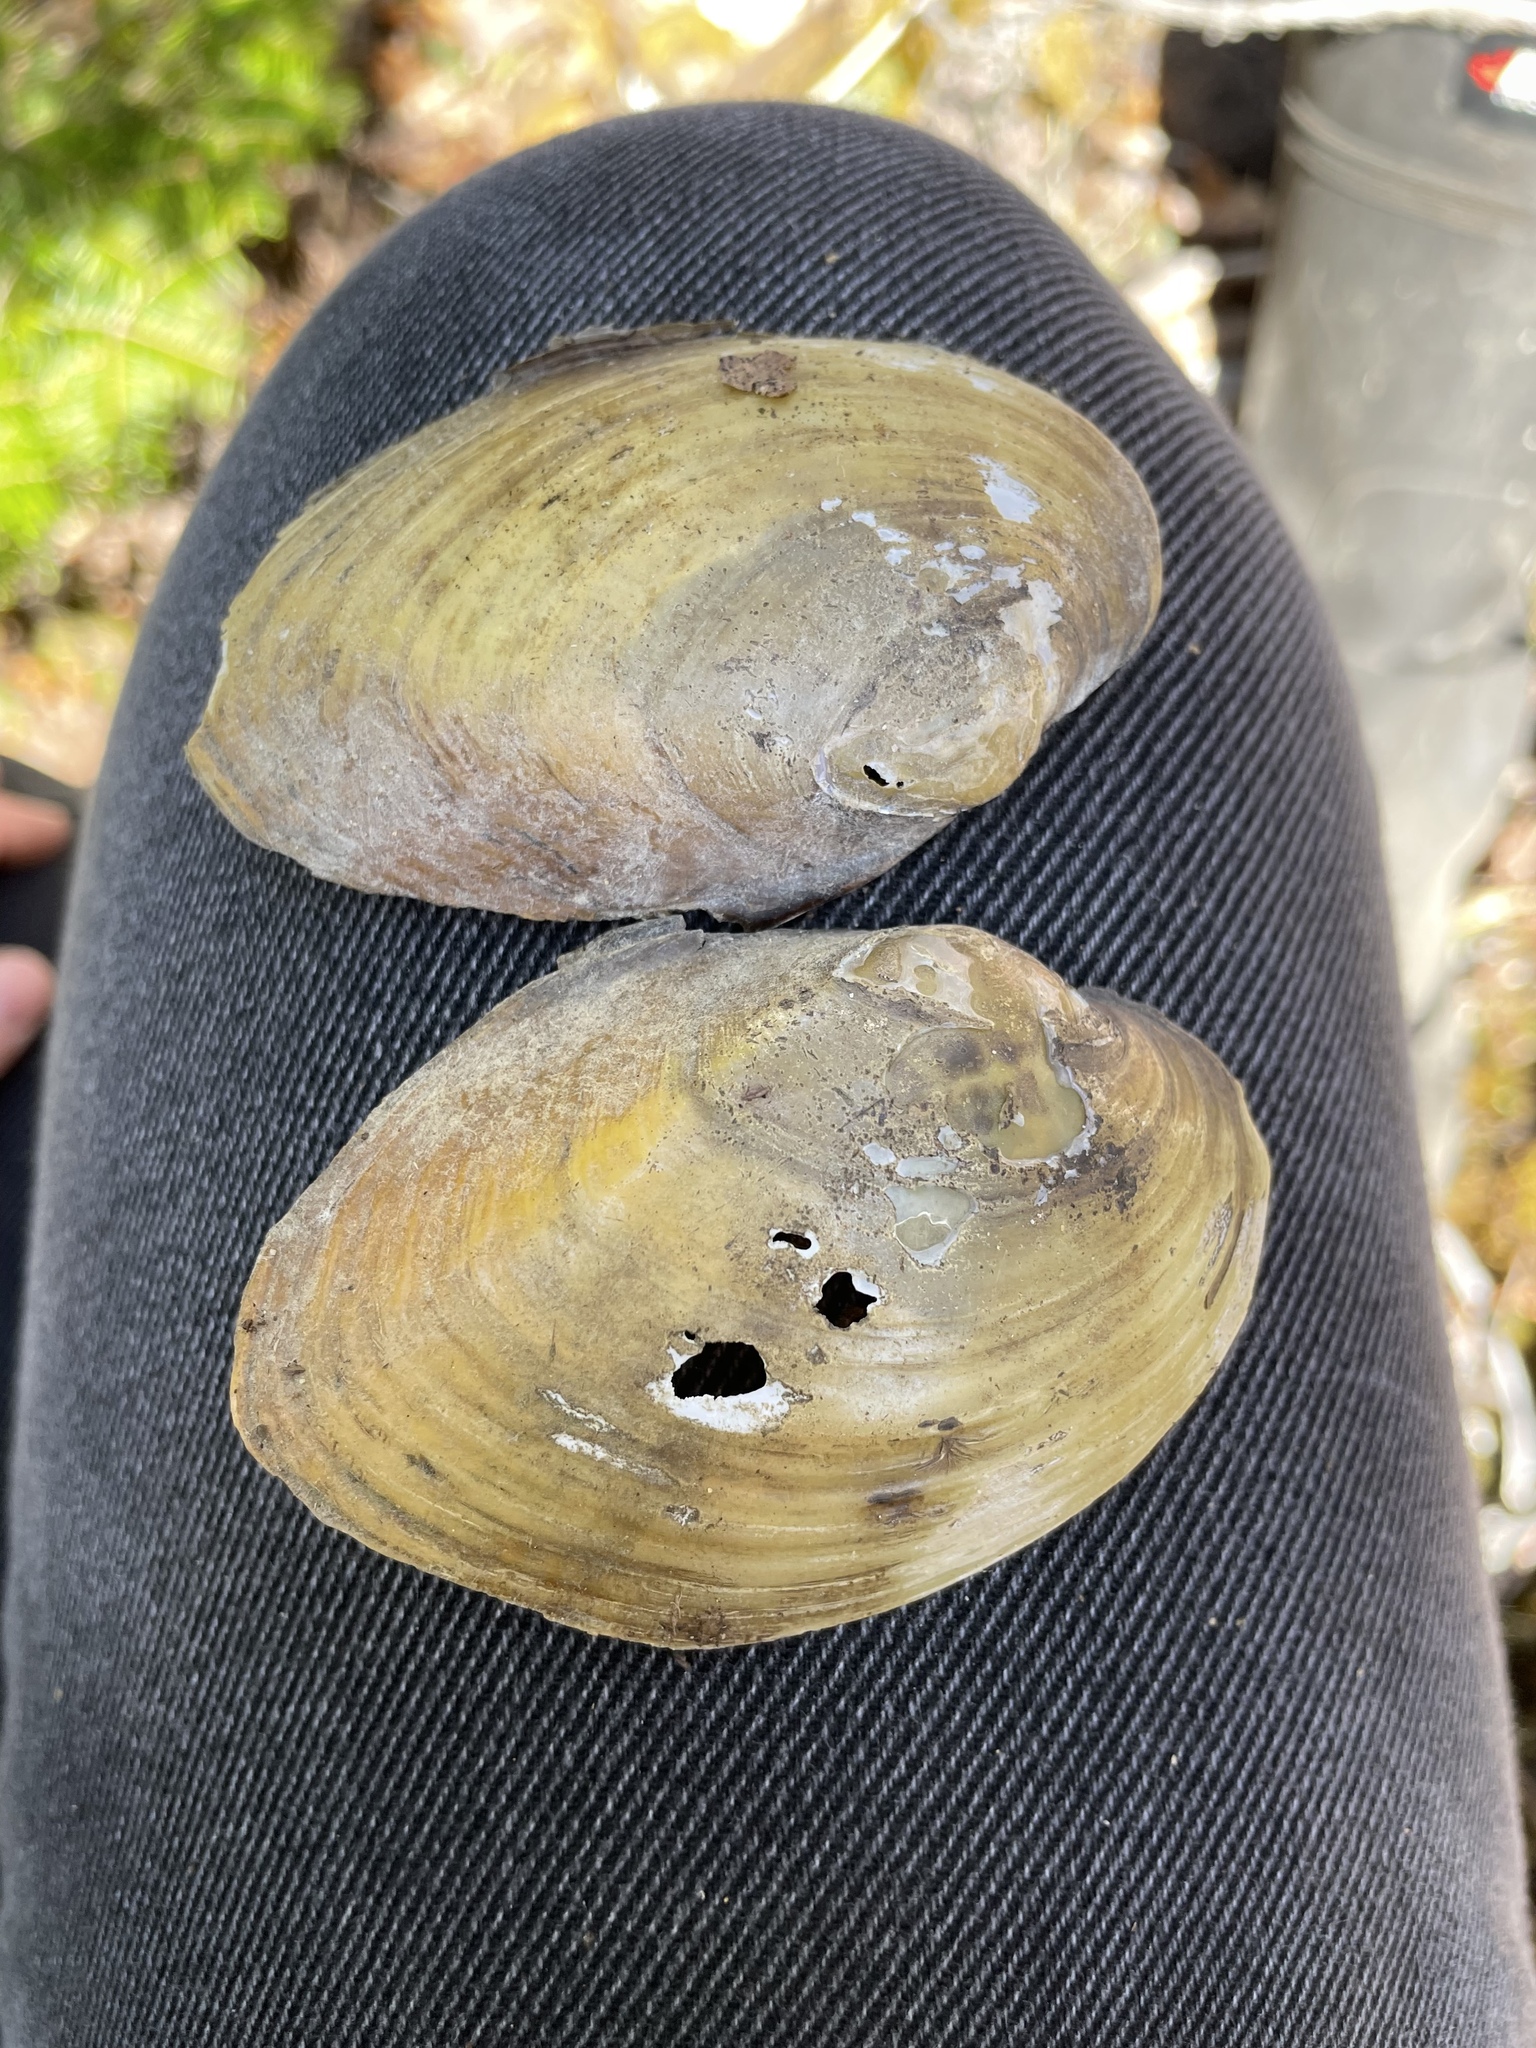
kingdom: Animalia
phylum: Mollusca
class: Bivalvia
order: Unionida
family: Unionidae
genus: Lampsilis
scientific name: Lampsilis cariosa
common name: Yellow lampmussel
